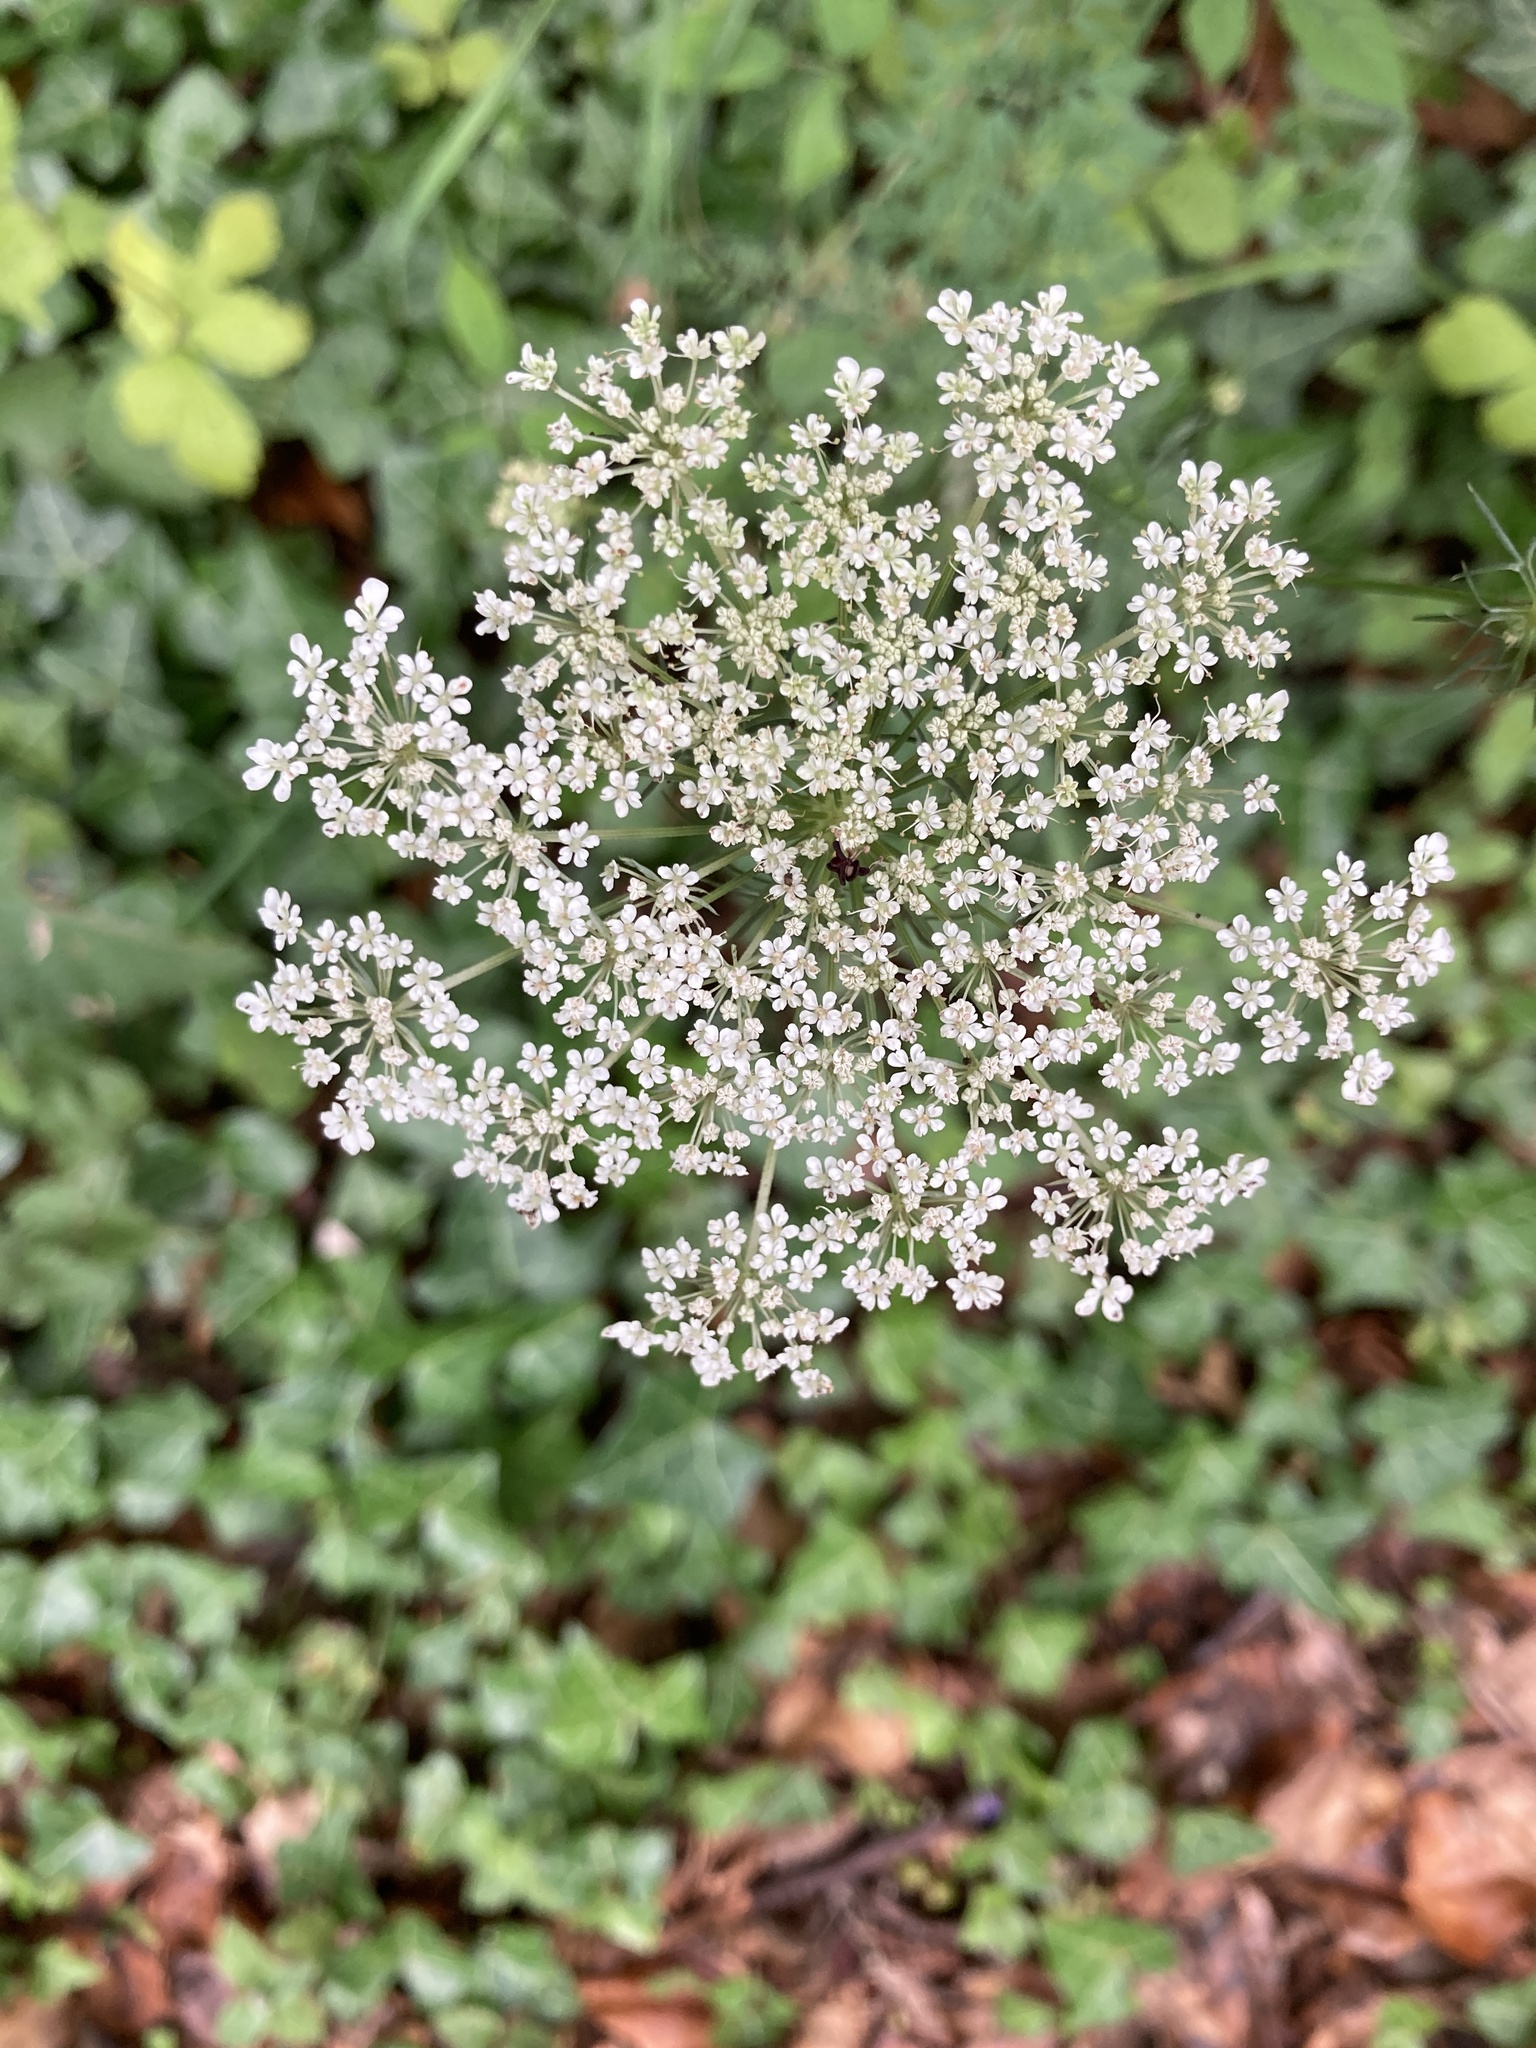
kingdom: Plantae
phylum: Tracheophyta
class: Magnoliopsida
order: Apiales
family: Apiaceae
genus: Daucus
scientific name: Daucus carota
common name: Wild carrot
